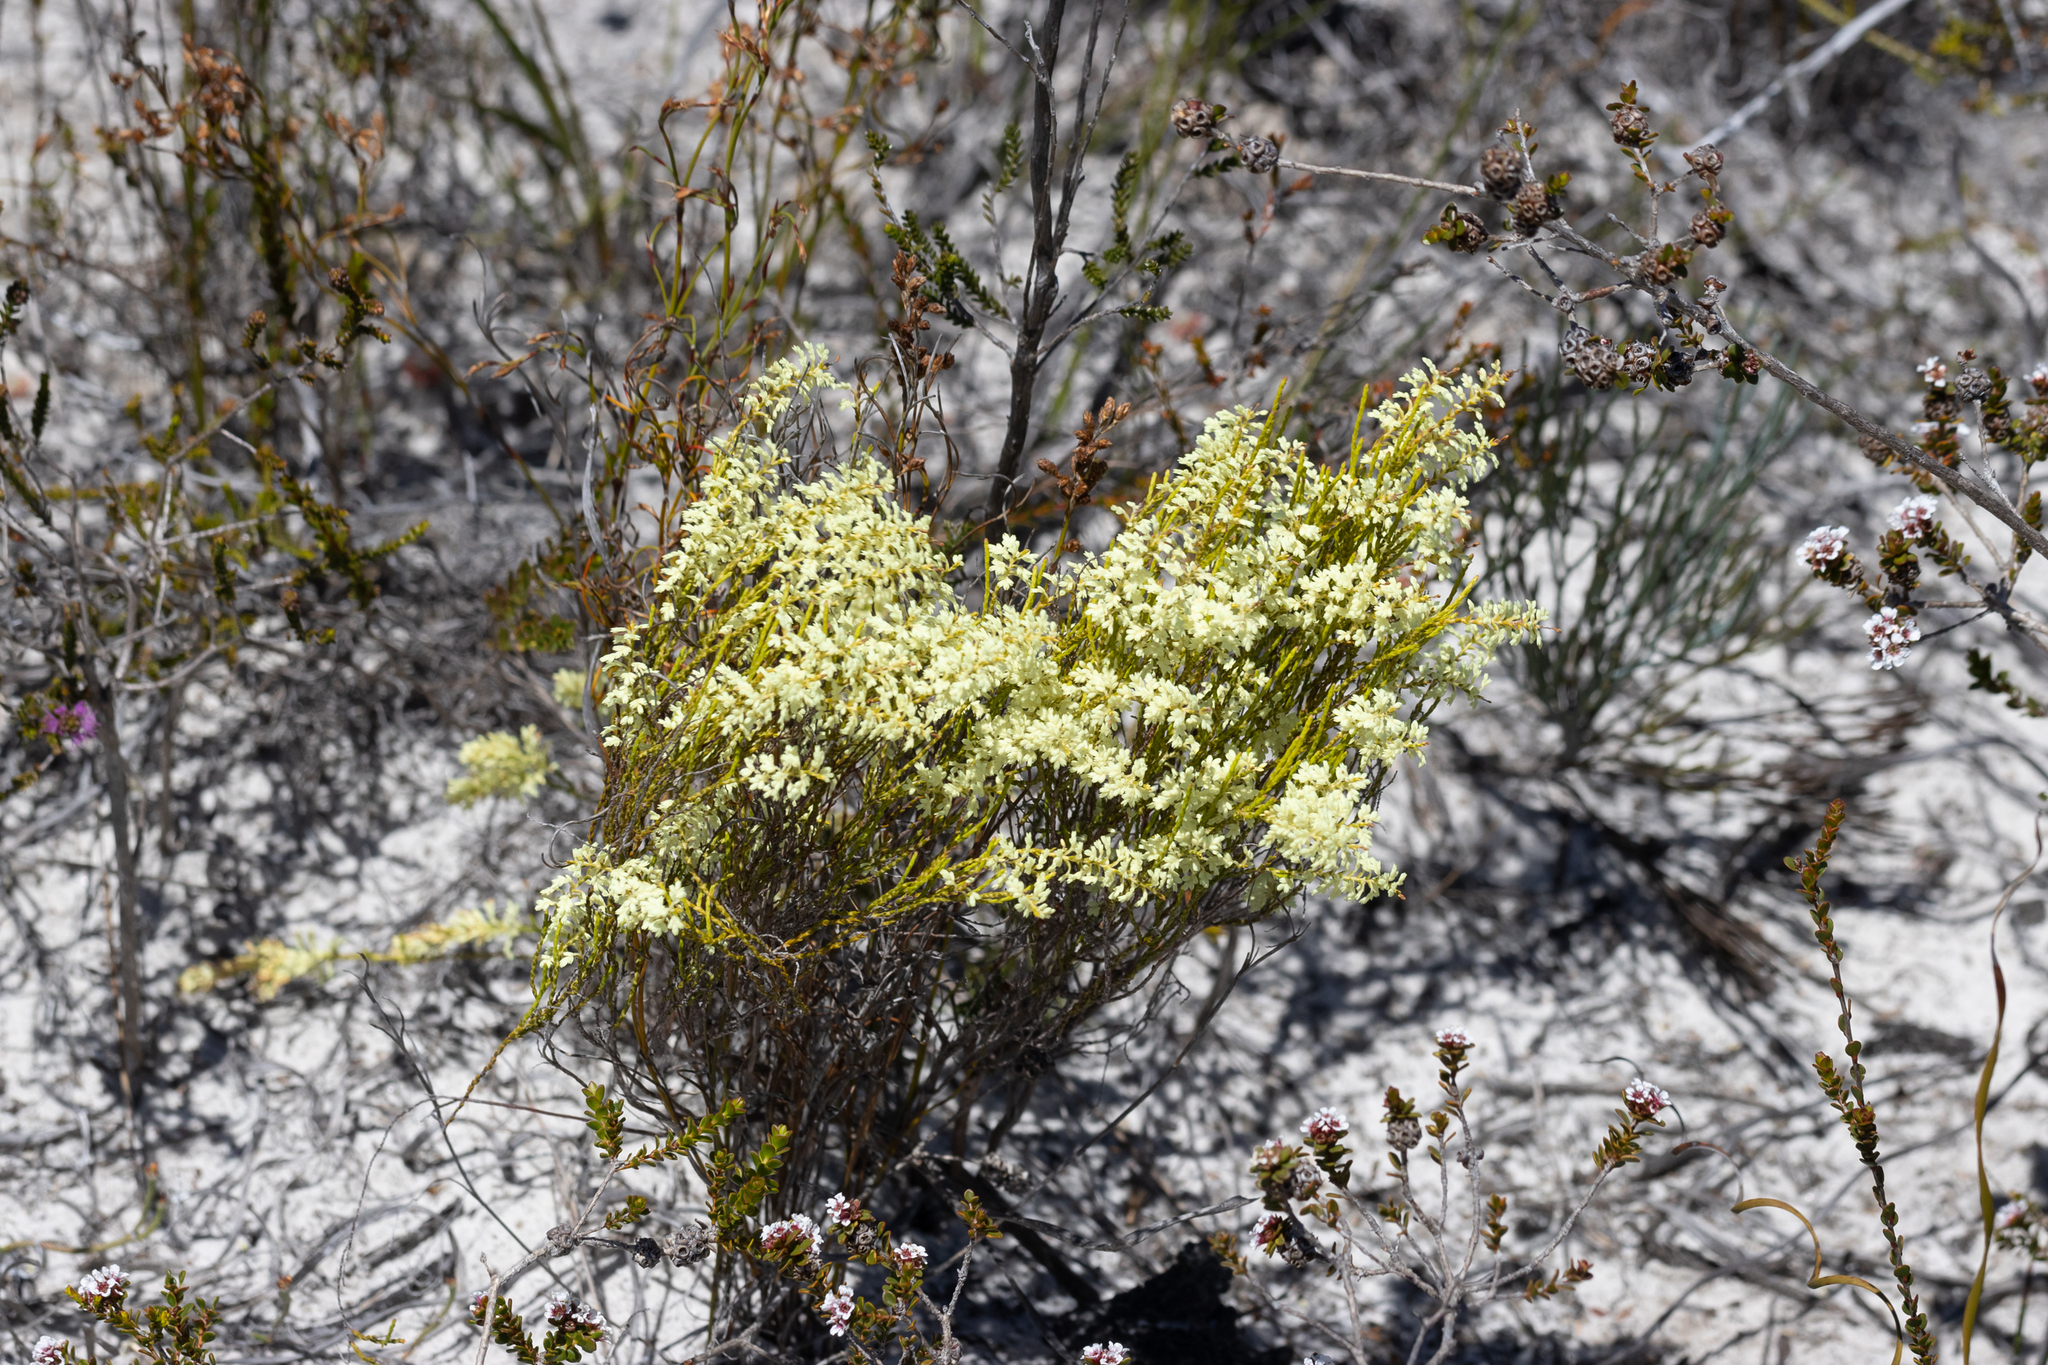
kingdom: Plantae
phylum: Tracheophyta
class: Magnoliopsida
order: Ericales
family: Ericaceae
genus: Oligarrhena
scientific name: Oligarrhena micrantha
